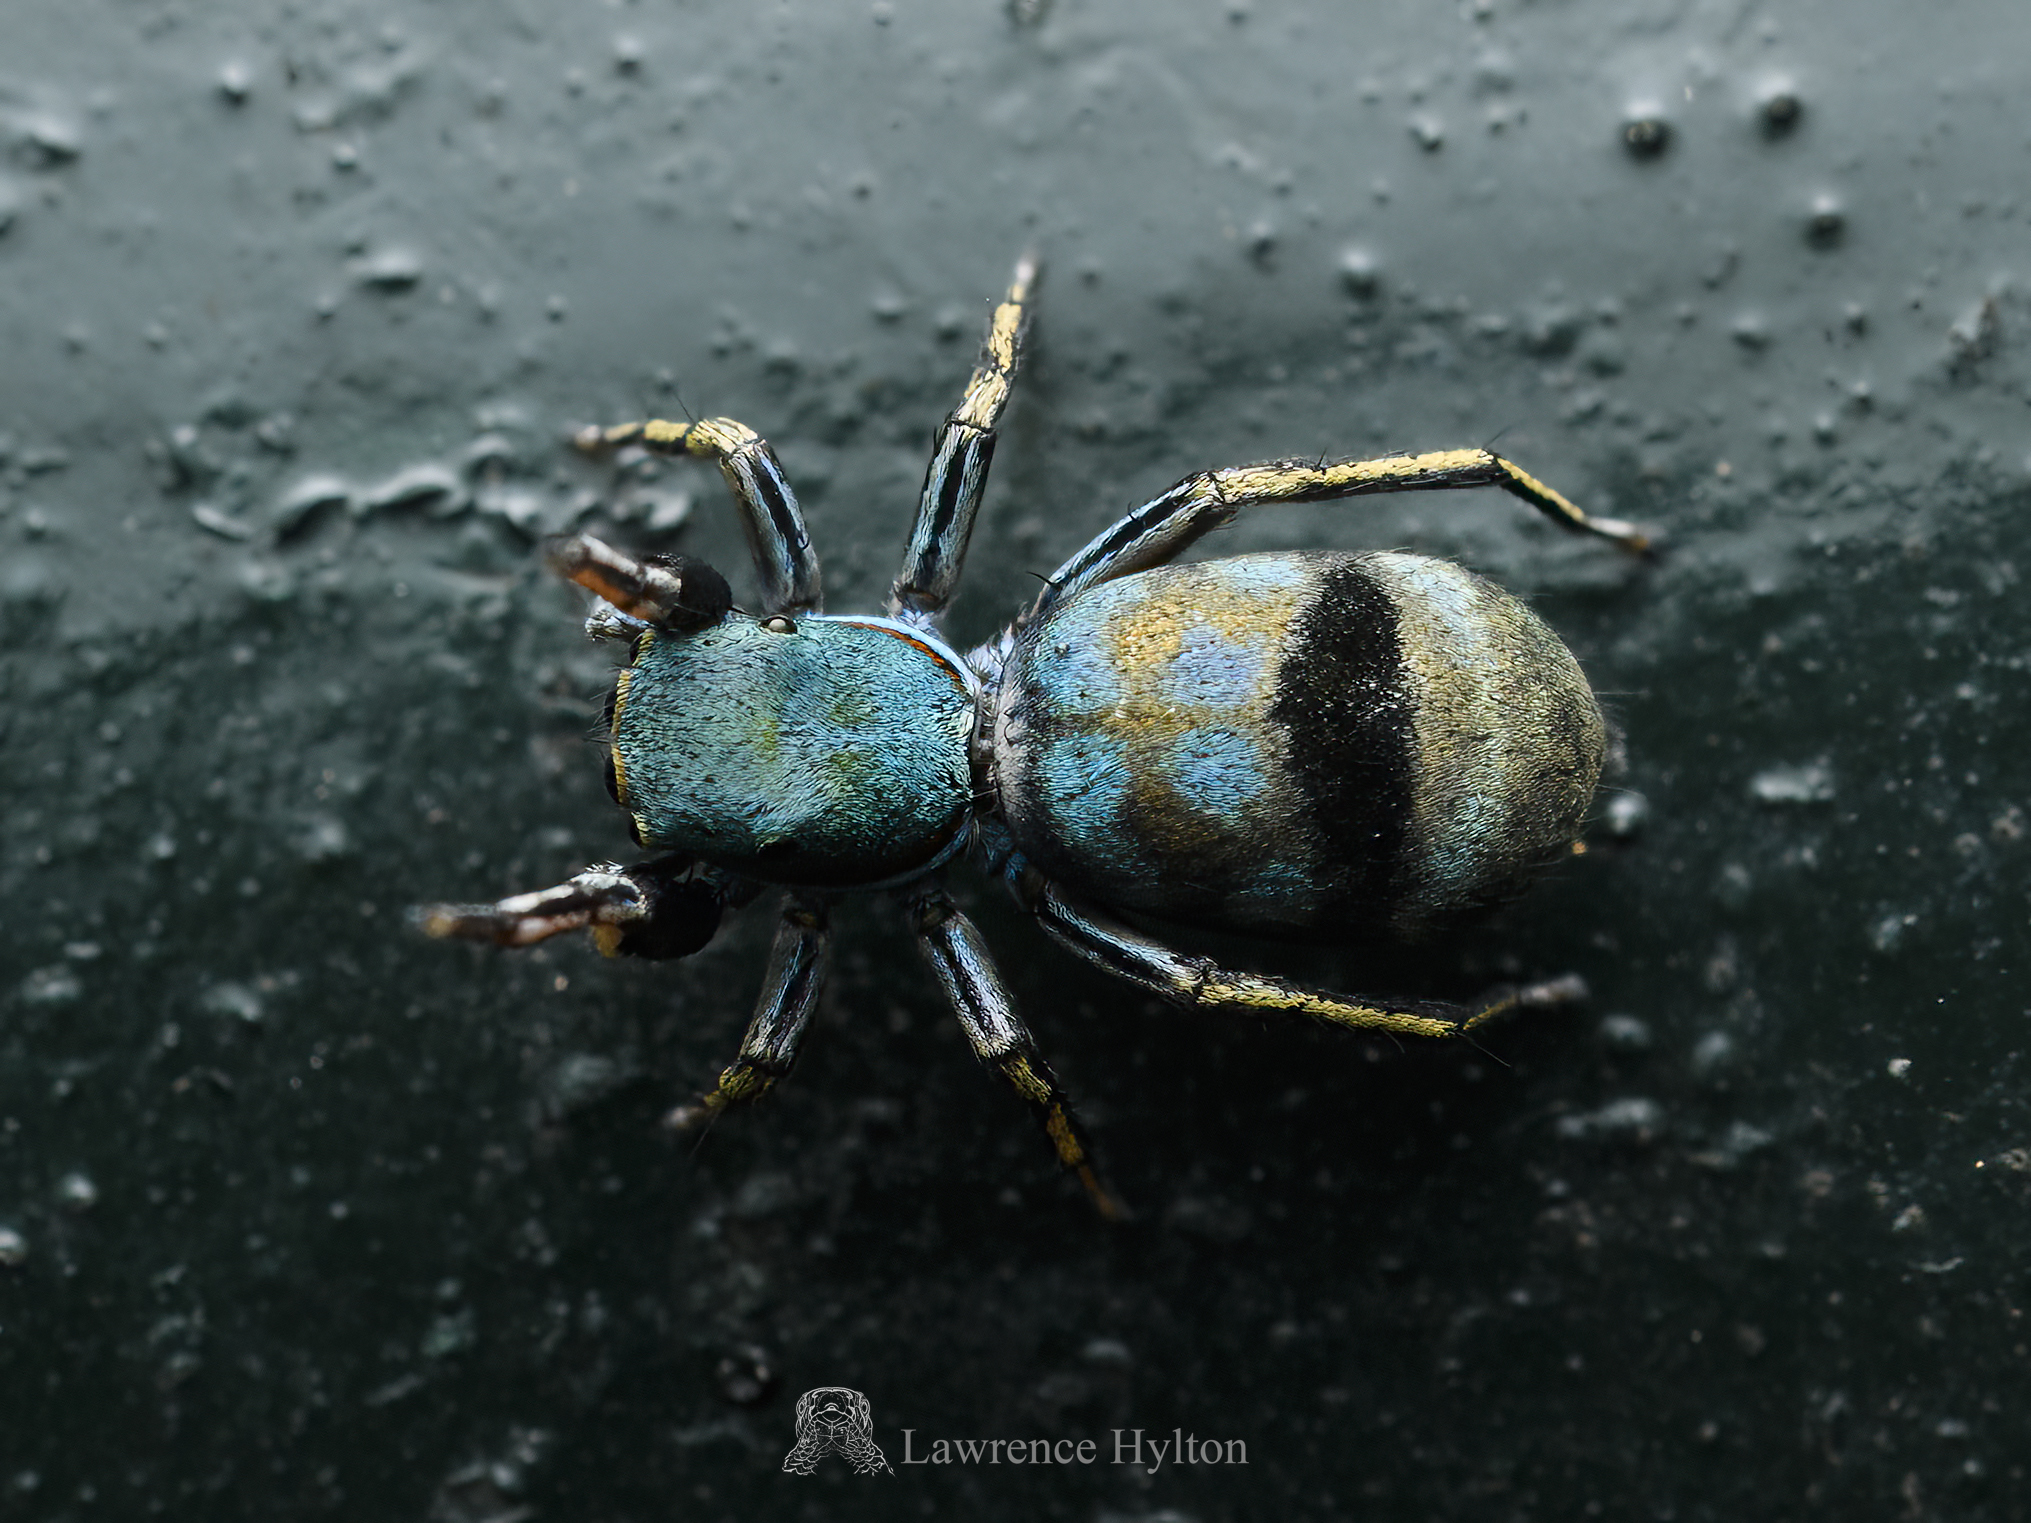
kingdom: Animalia
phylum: Arthropoda
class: Arachnida
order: Araneae
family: Salticidae
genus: Siler
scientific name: Siler collingwoodi
